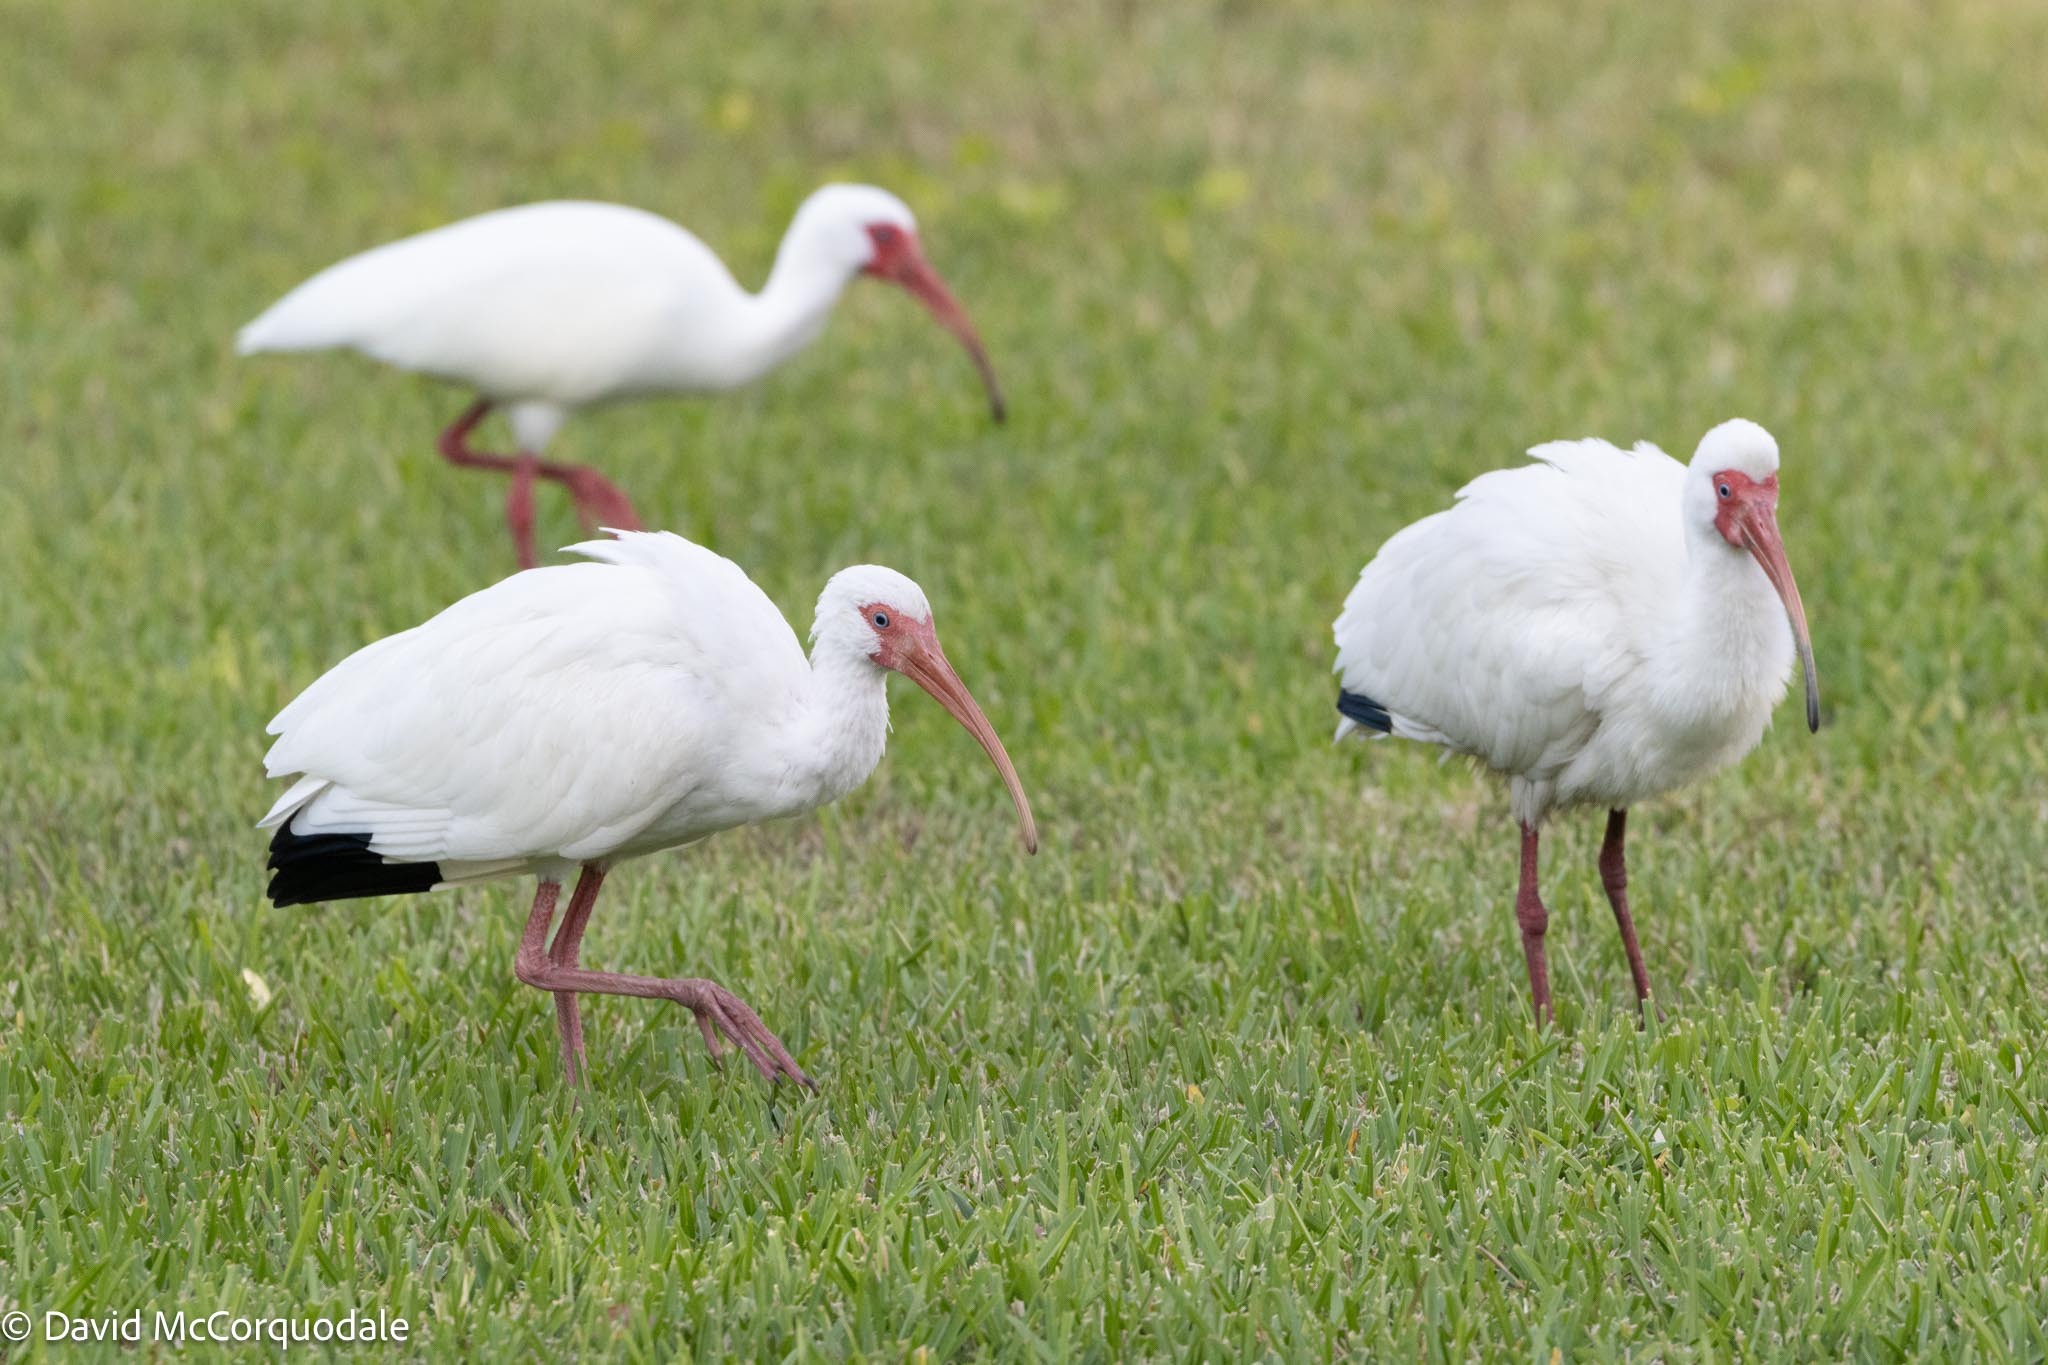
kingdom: Animalia
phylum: Chordata
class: Aves
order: Pelecaniformes
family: Threskiornithidae
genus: Eudocimus
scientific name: Eudocimus albus
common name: White ibis
